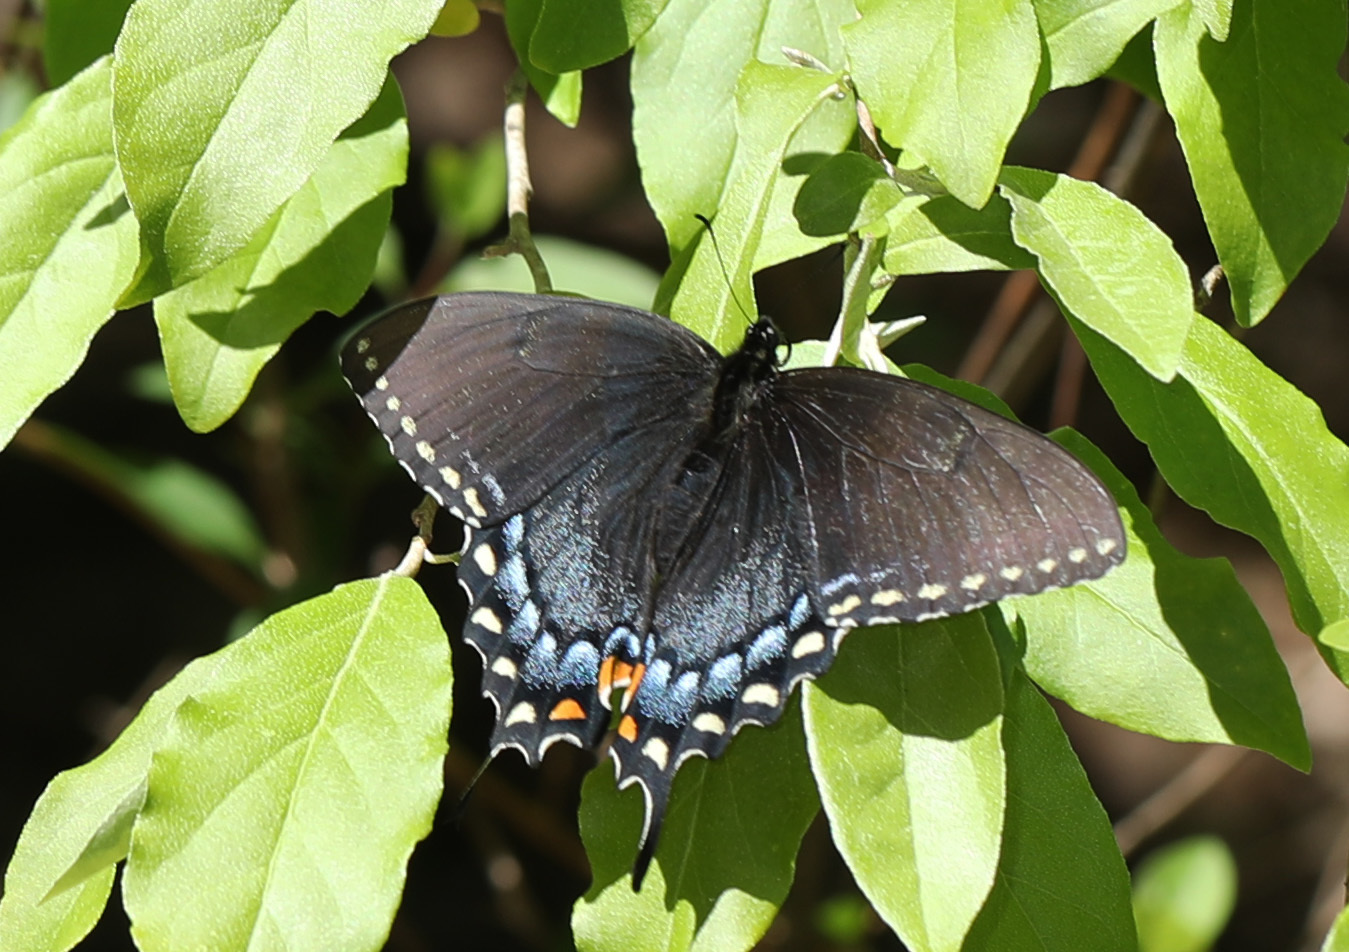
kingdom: Animalia
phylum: Arthropoda
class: Insecta
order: Lepidoptera
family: Papilionidae
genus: Papilio
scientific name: Papilio glaucus
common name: Tiger swallowtail
